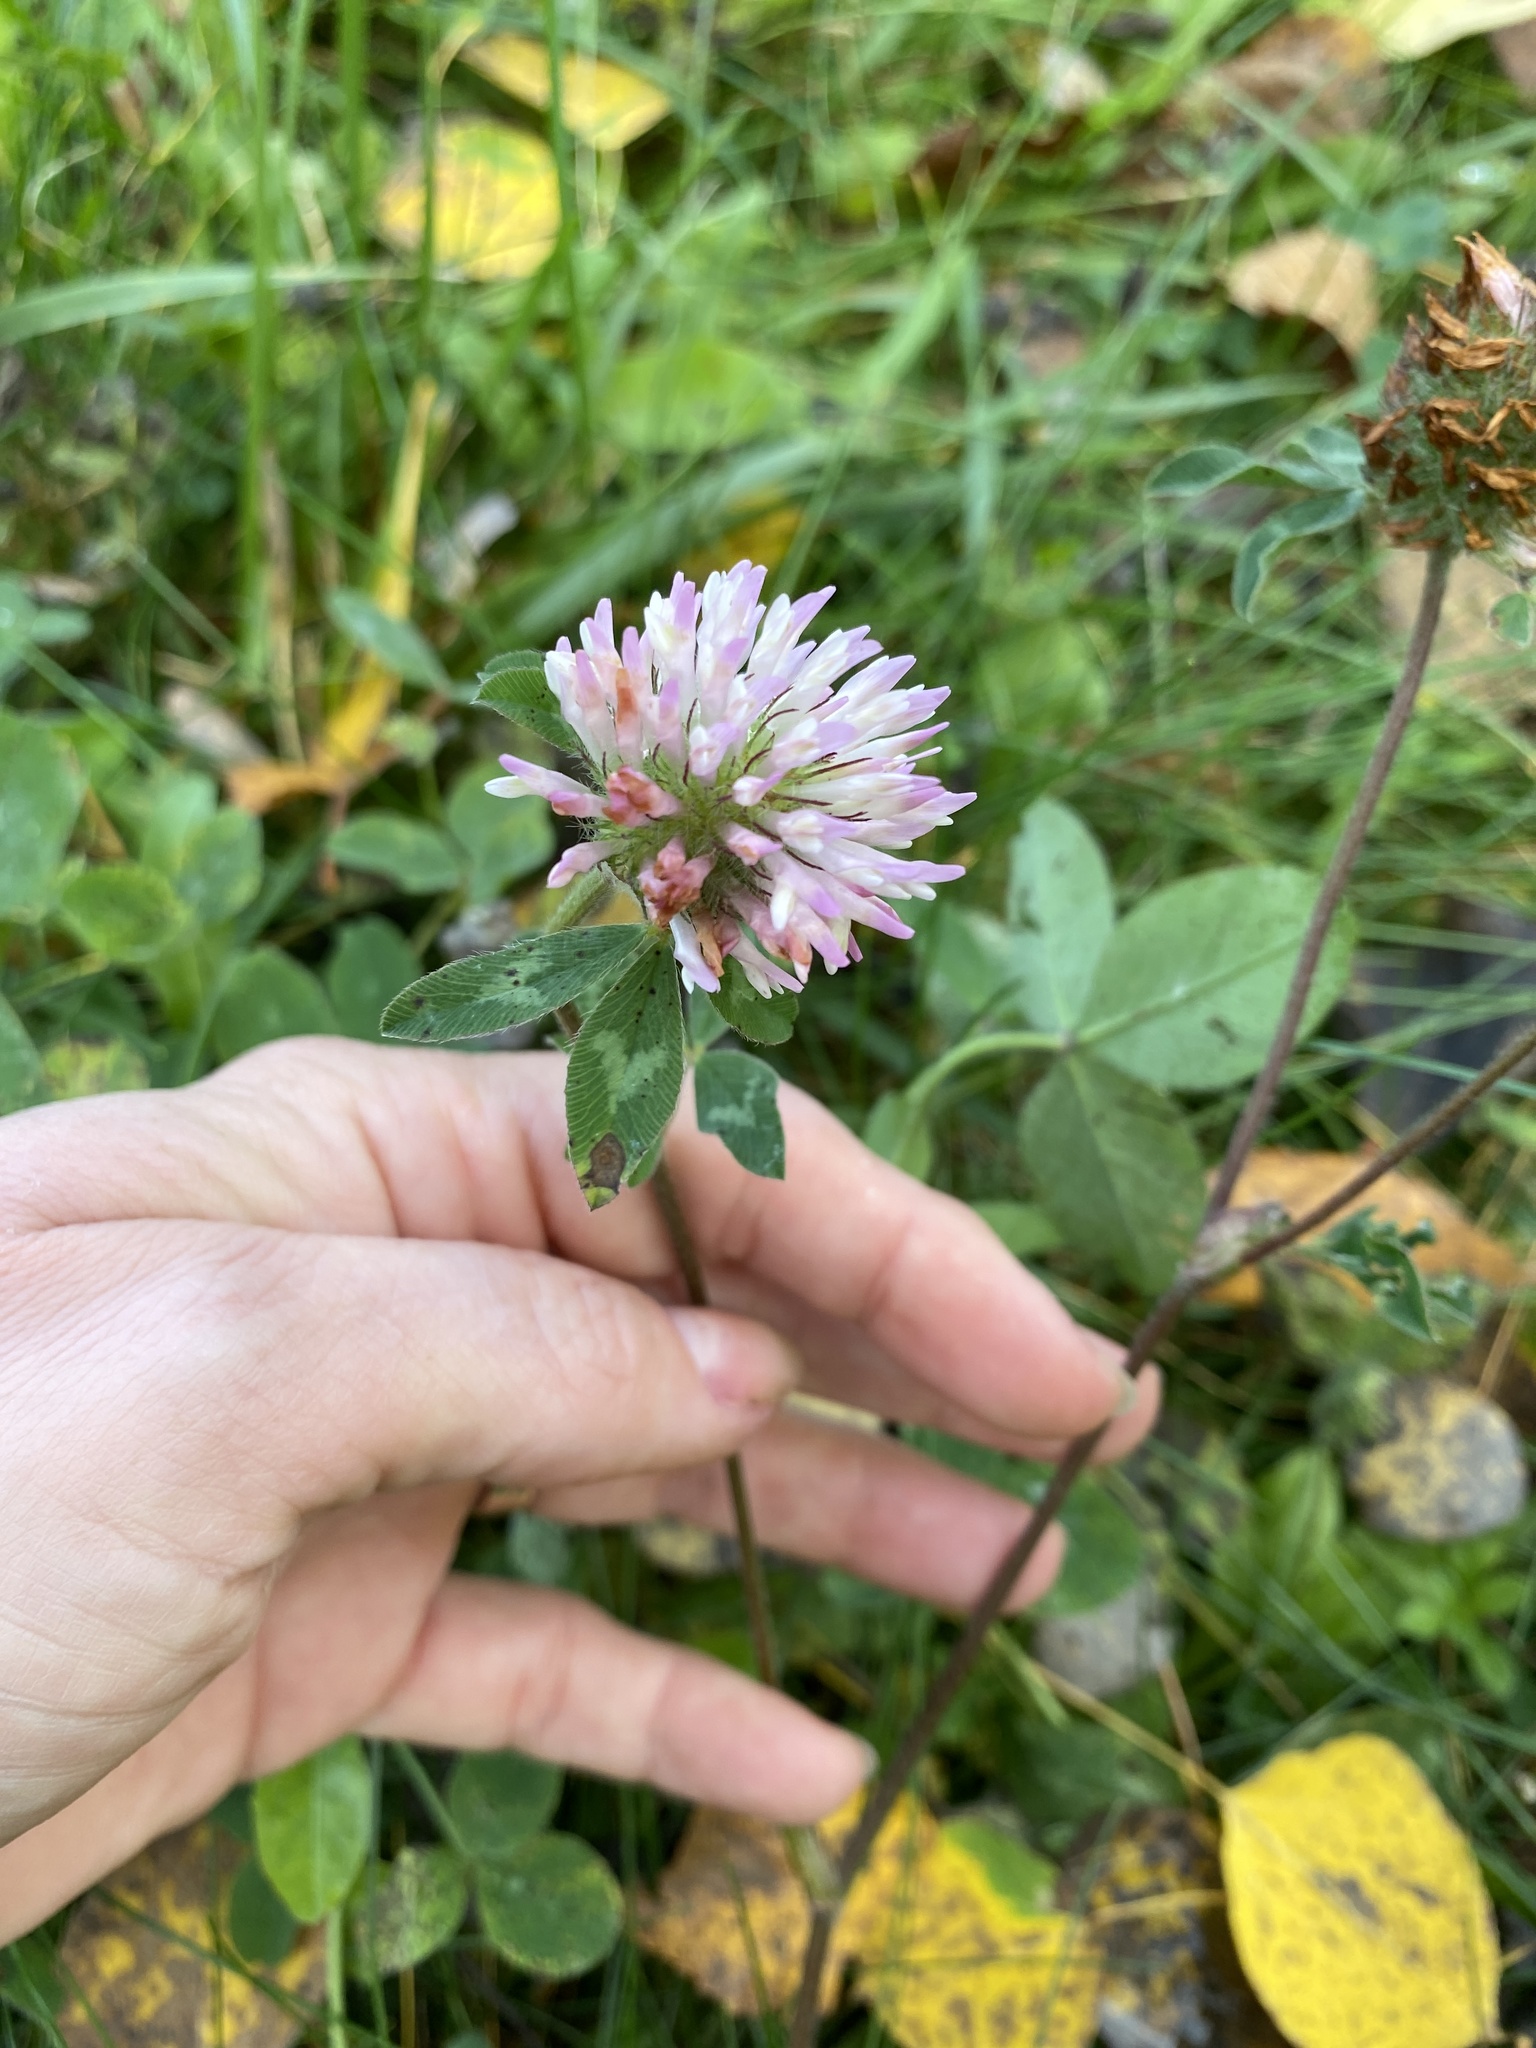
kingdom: Plantae
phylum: Tracheophyta
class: Magnoliopsida
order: Fabales
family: Fabaceae
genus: Trifolium
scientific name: Trifolium pratense
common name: Red clover
